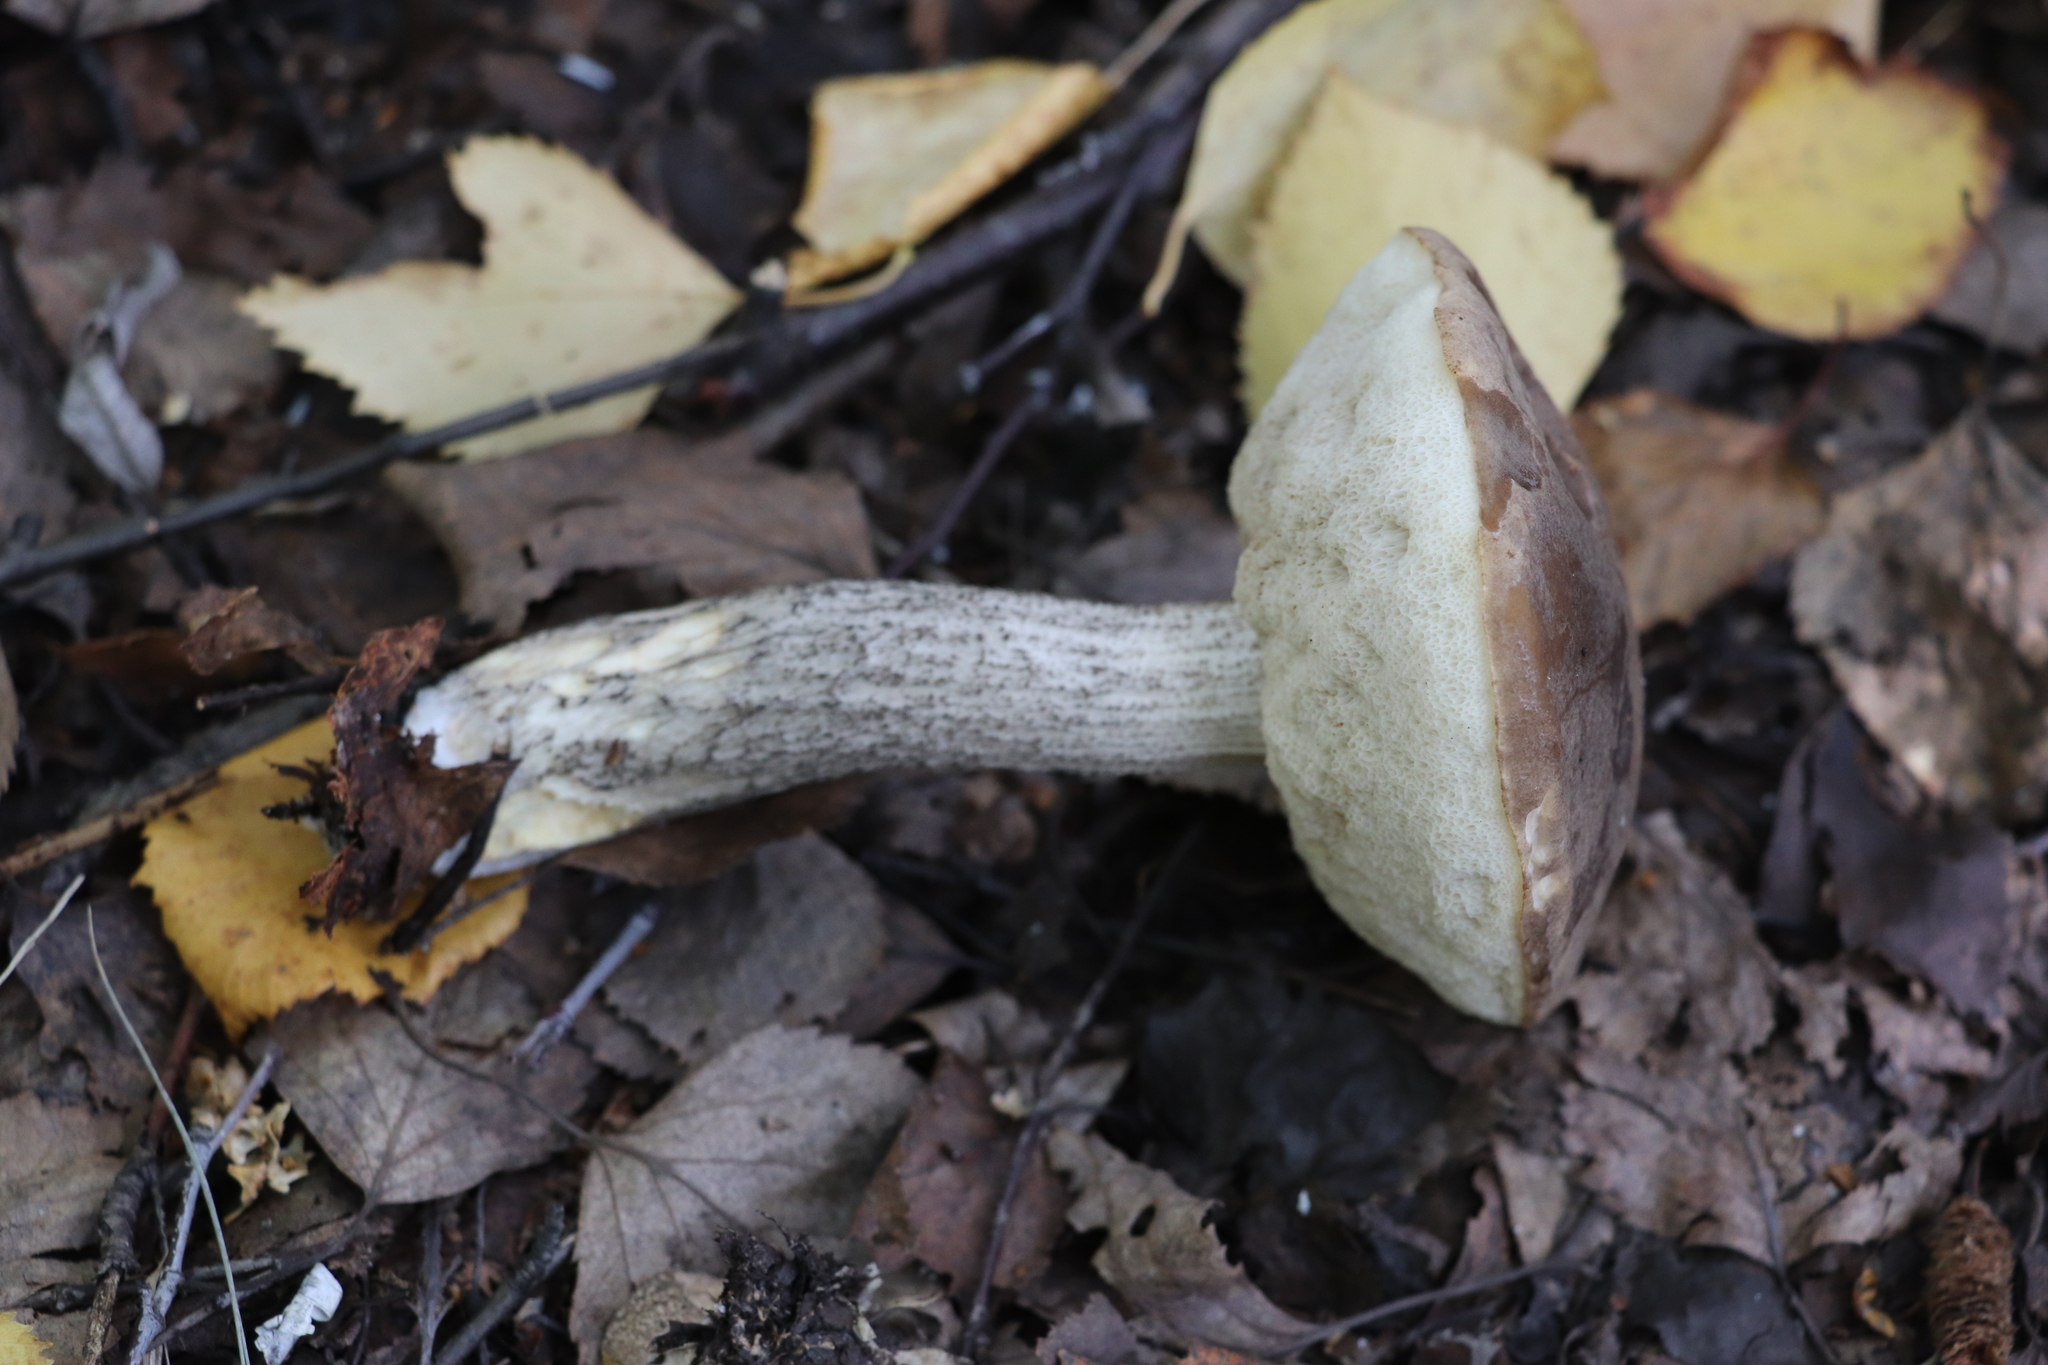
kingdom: Fungi
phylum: Basidiomycota
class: Agaricomycetes
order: Boletales
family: Boletaceae
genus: Leccinum
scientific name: Leccinum scabrum
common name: Blushing bolete
